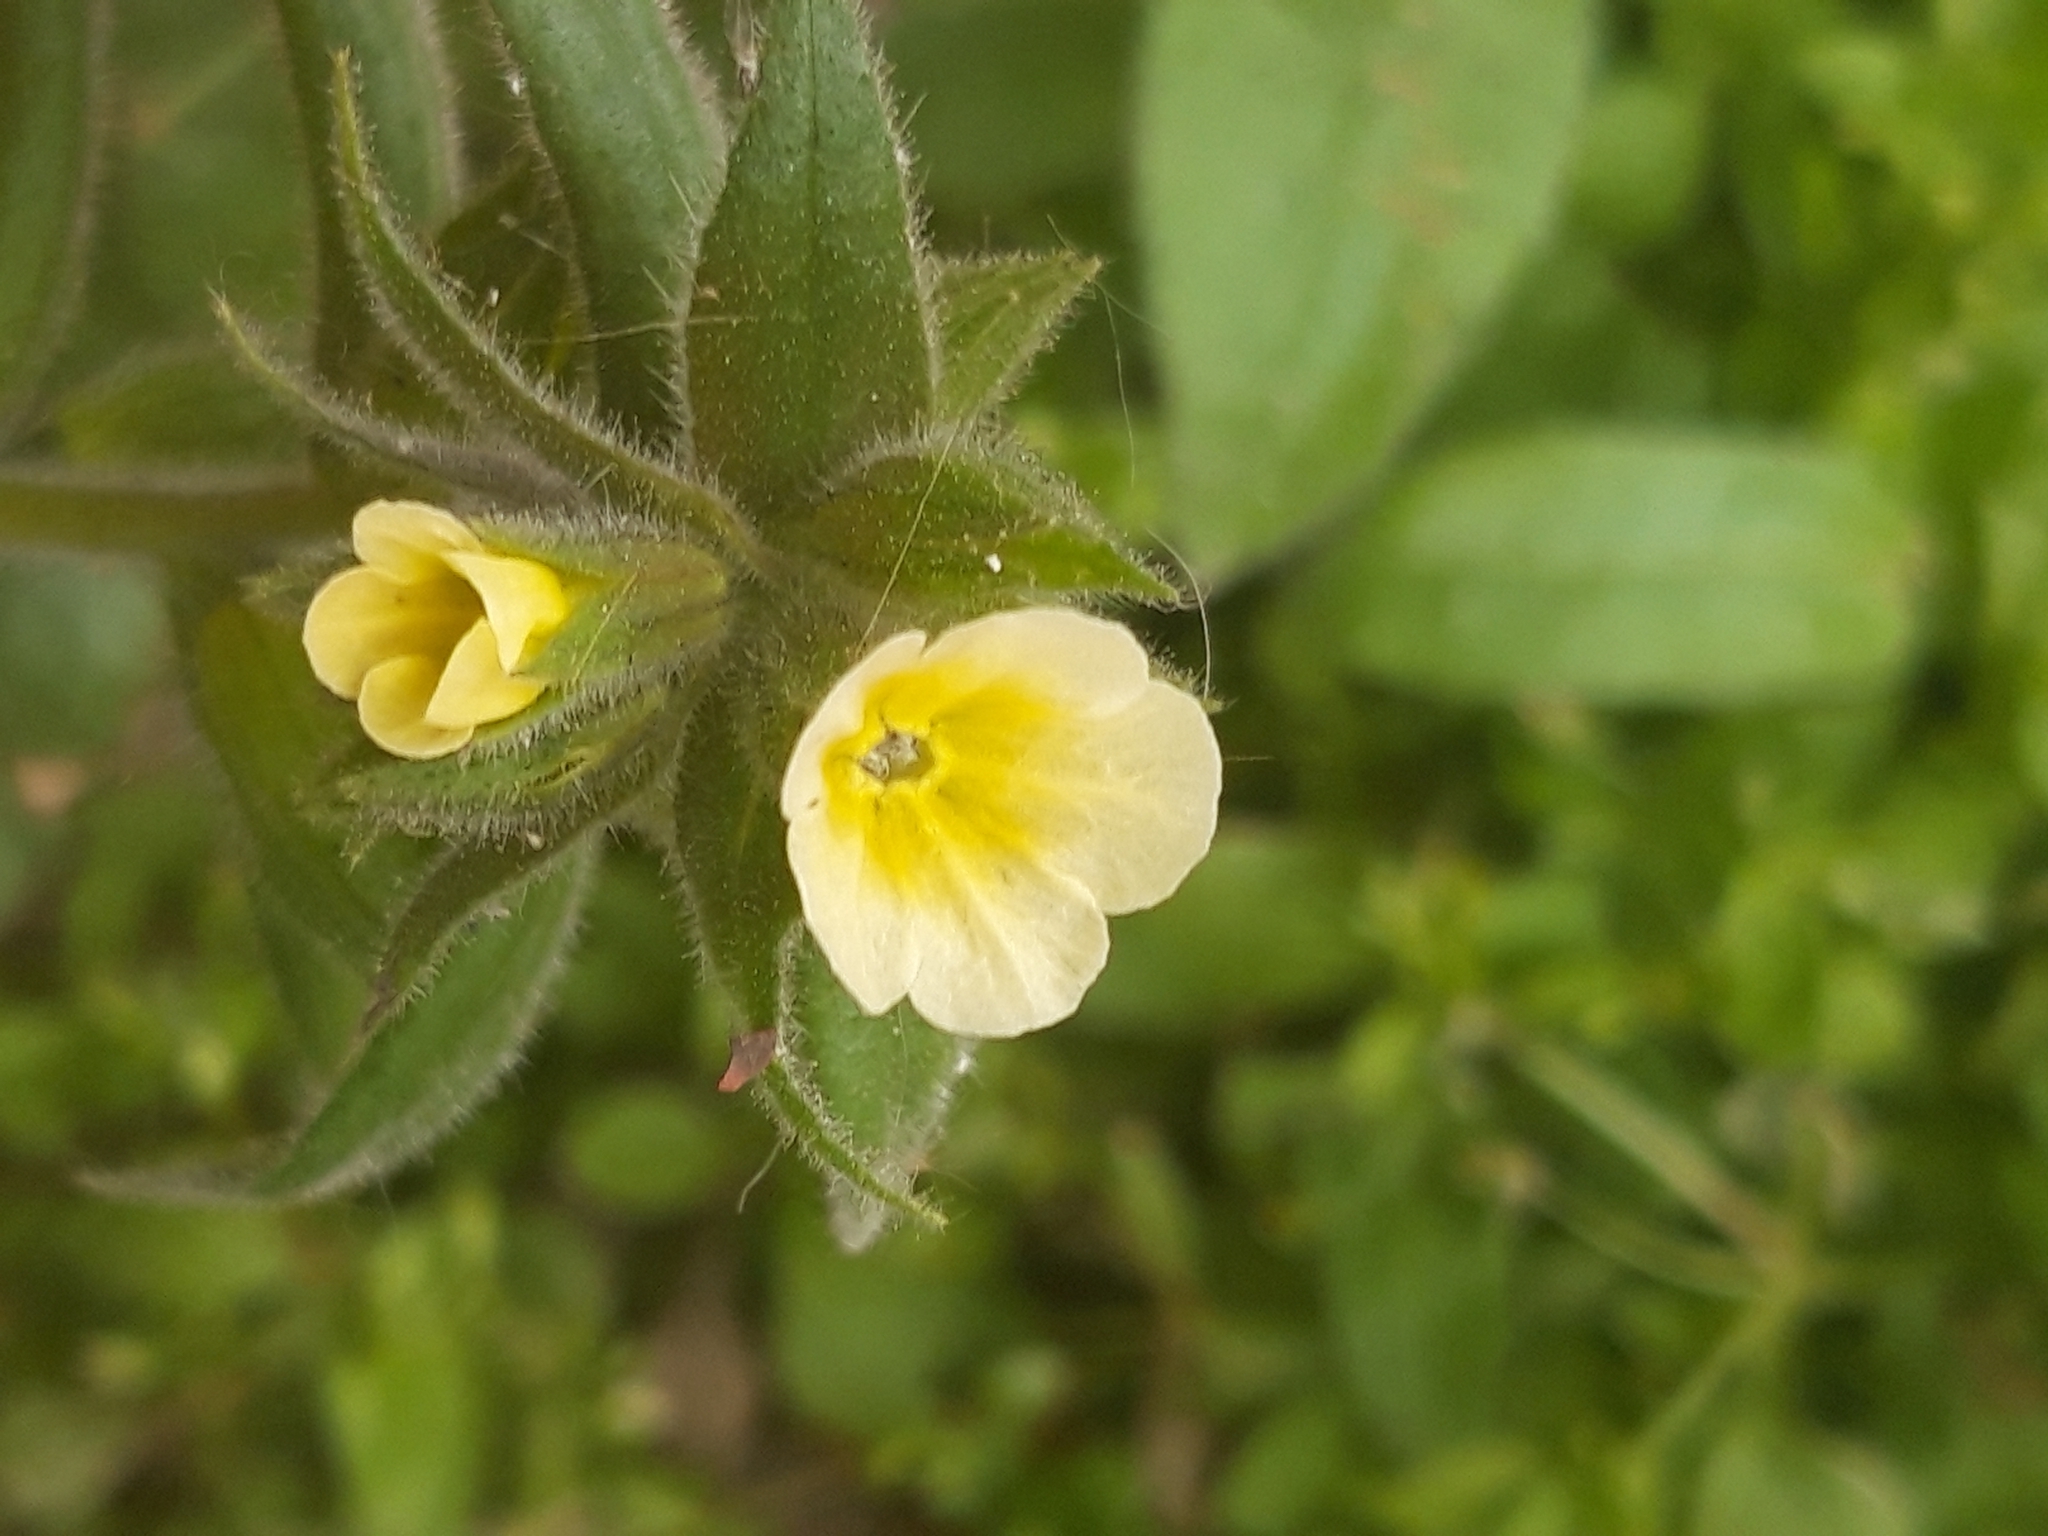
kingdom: Plantae
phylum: Tracheophyta
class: Magnoliopsida
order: Boraginales
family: Boraginaceae
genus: Nonea
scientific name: Nonea lutea
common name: Yellow nonea
